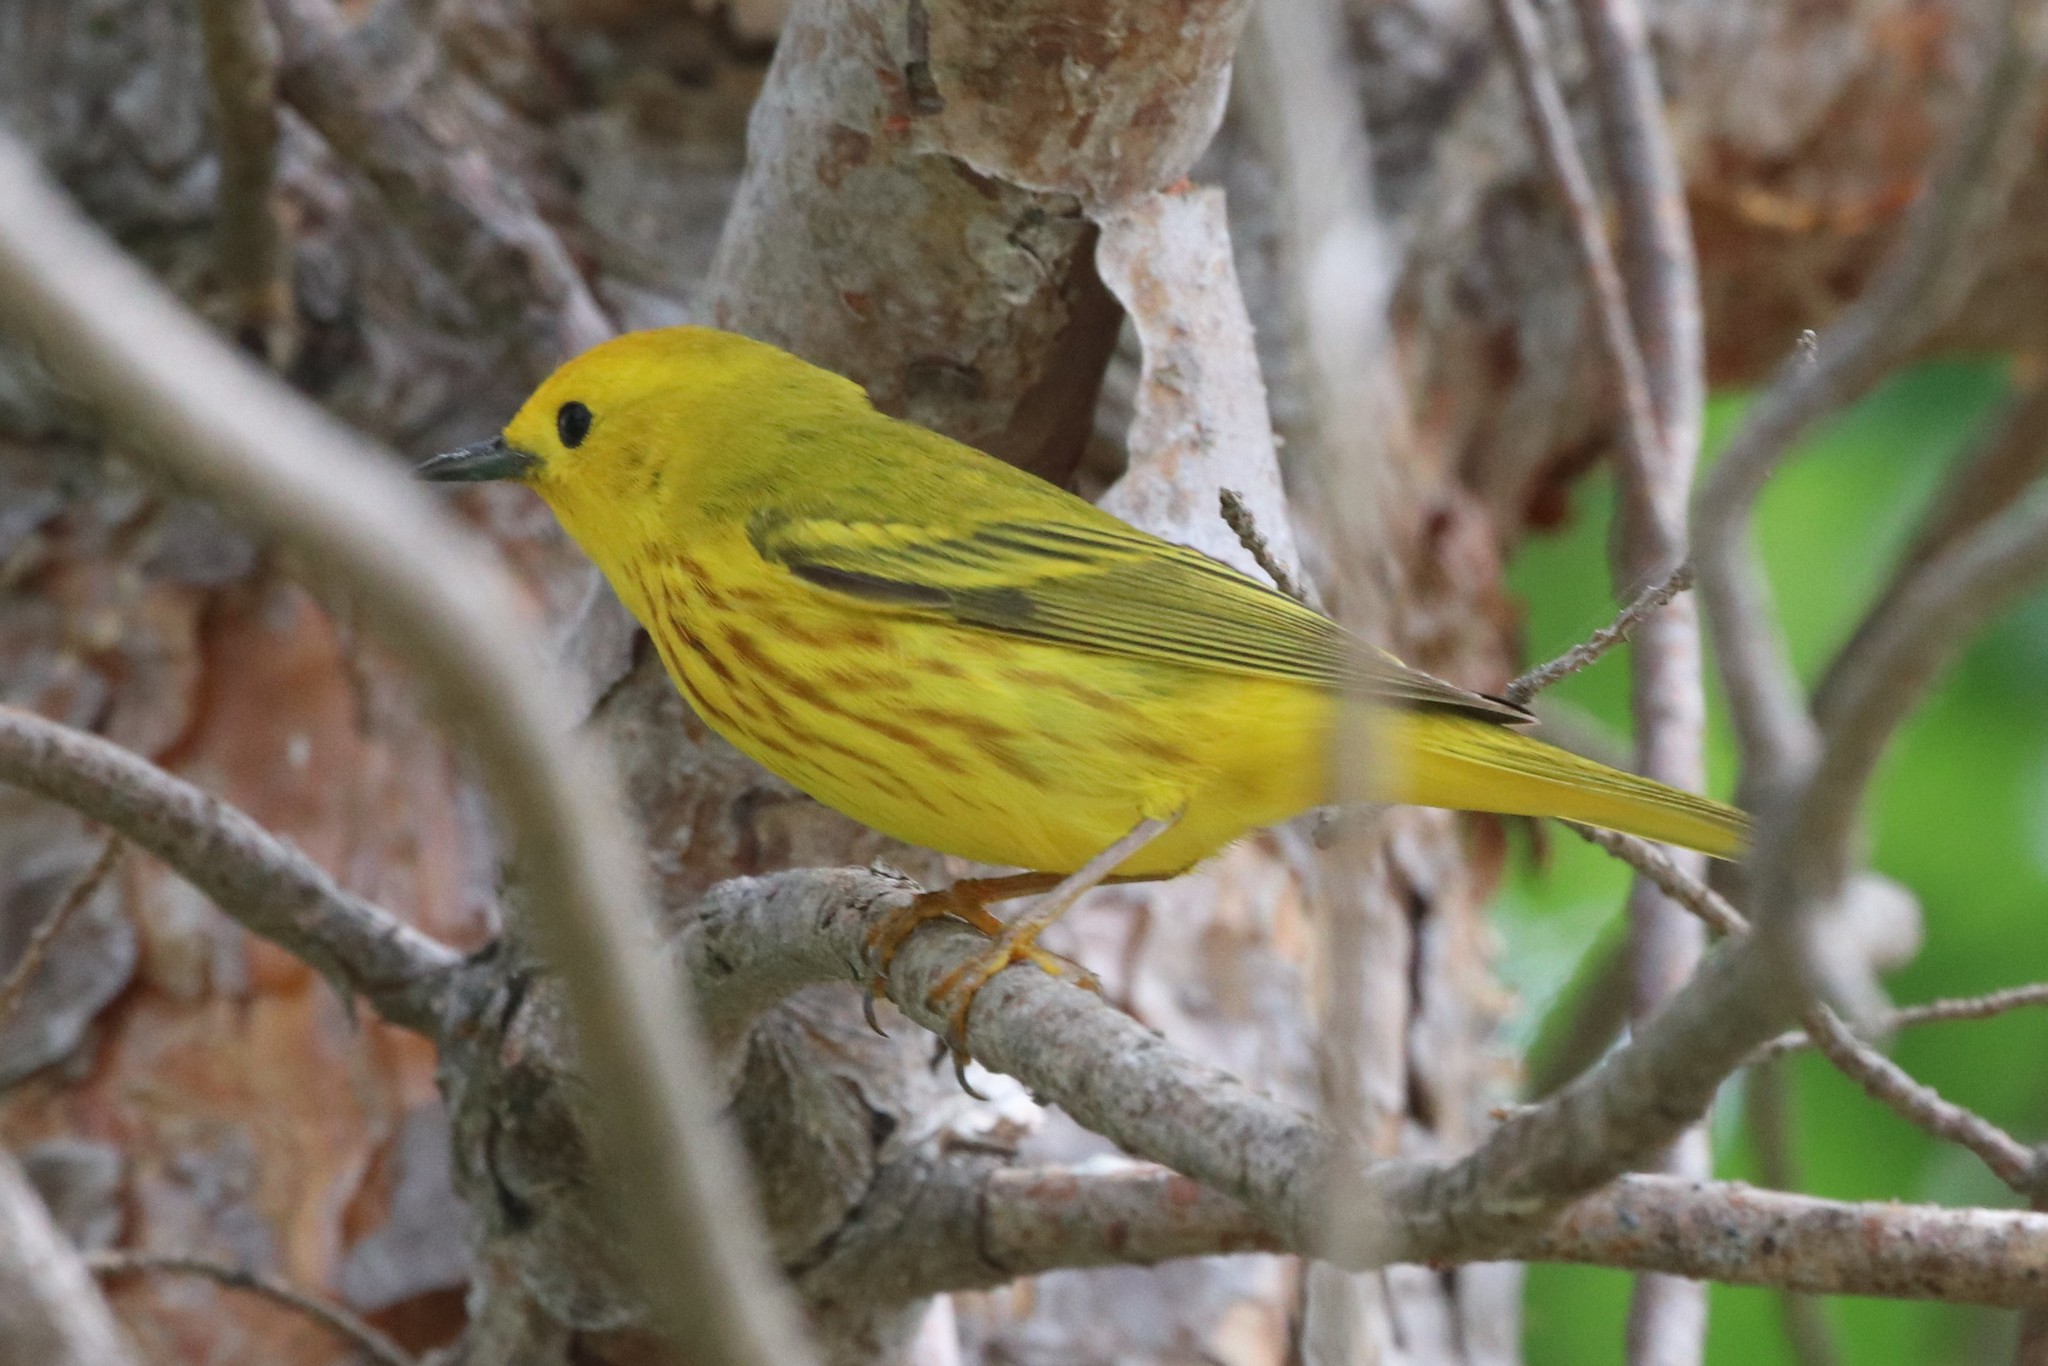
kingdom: Animalia
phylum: Chordata
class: Aves
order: Passeriformes
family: Parulidae
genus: Setophaga
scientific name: Setophaga petechia
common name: Yellow warbler
